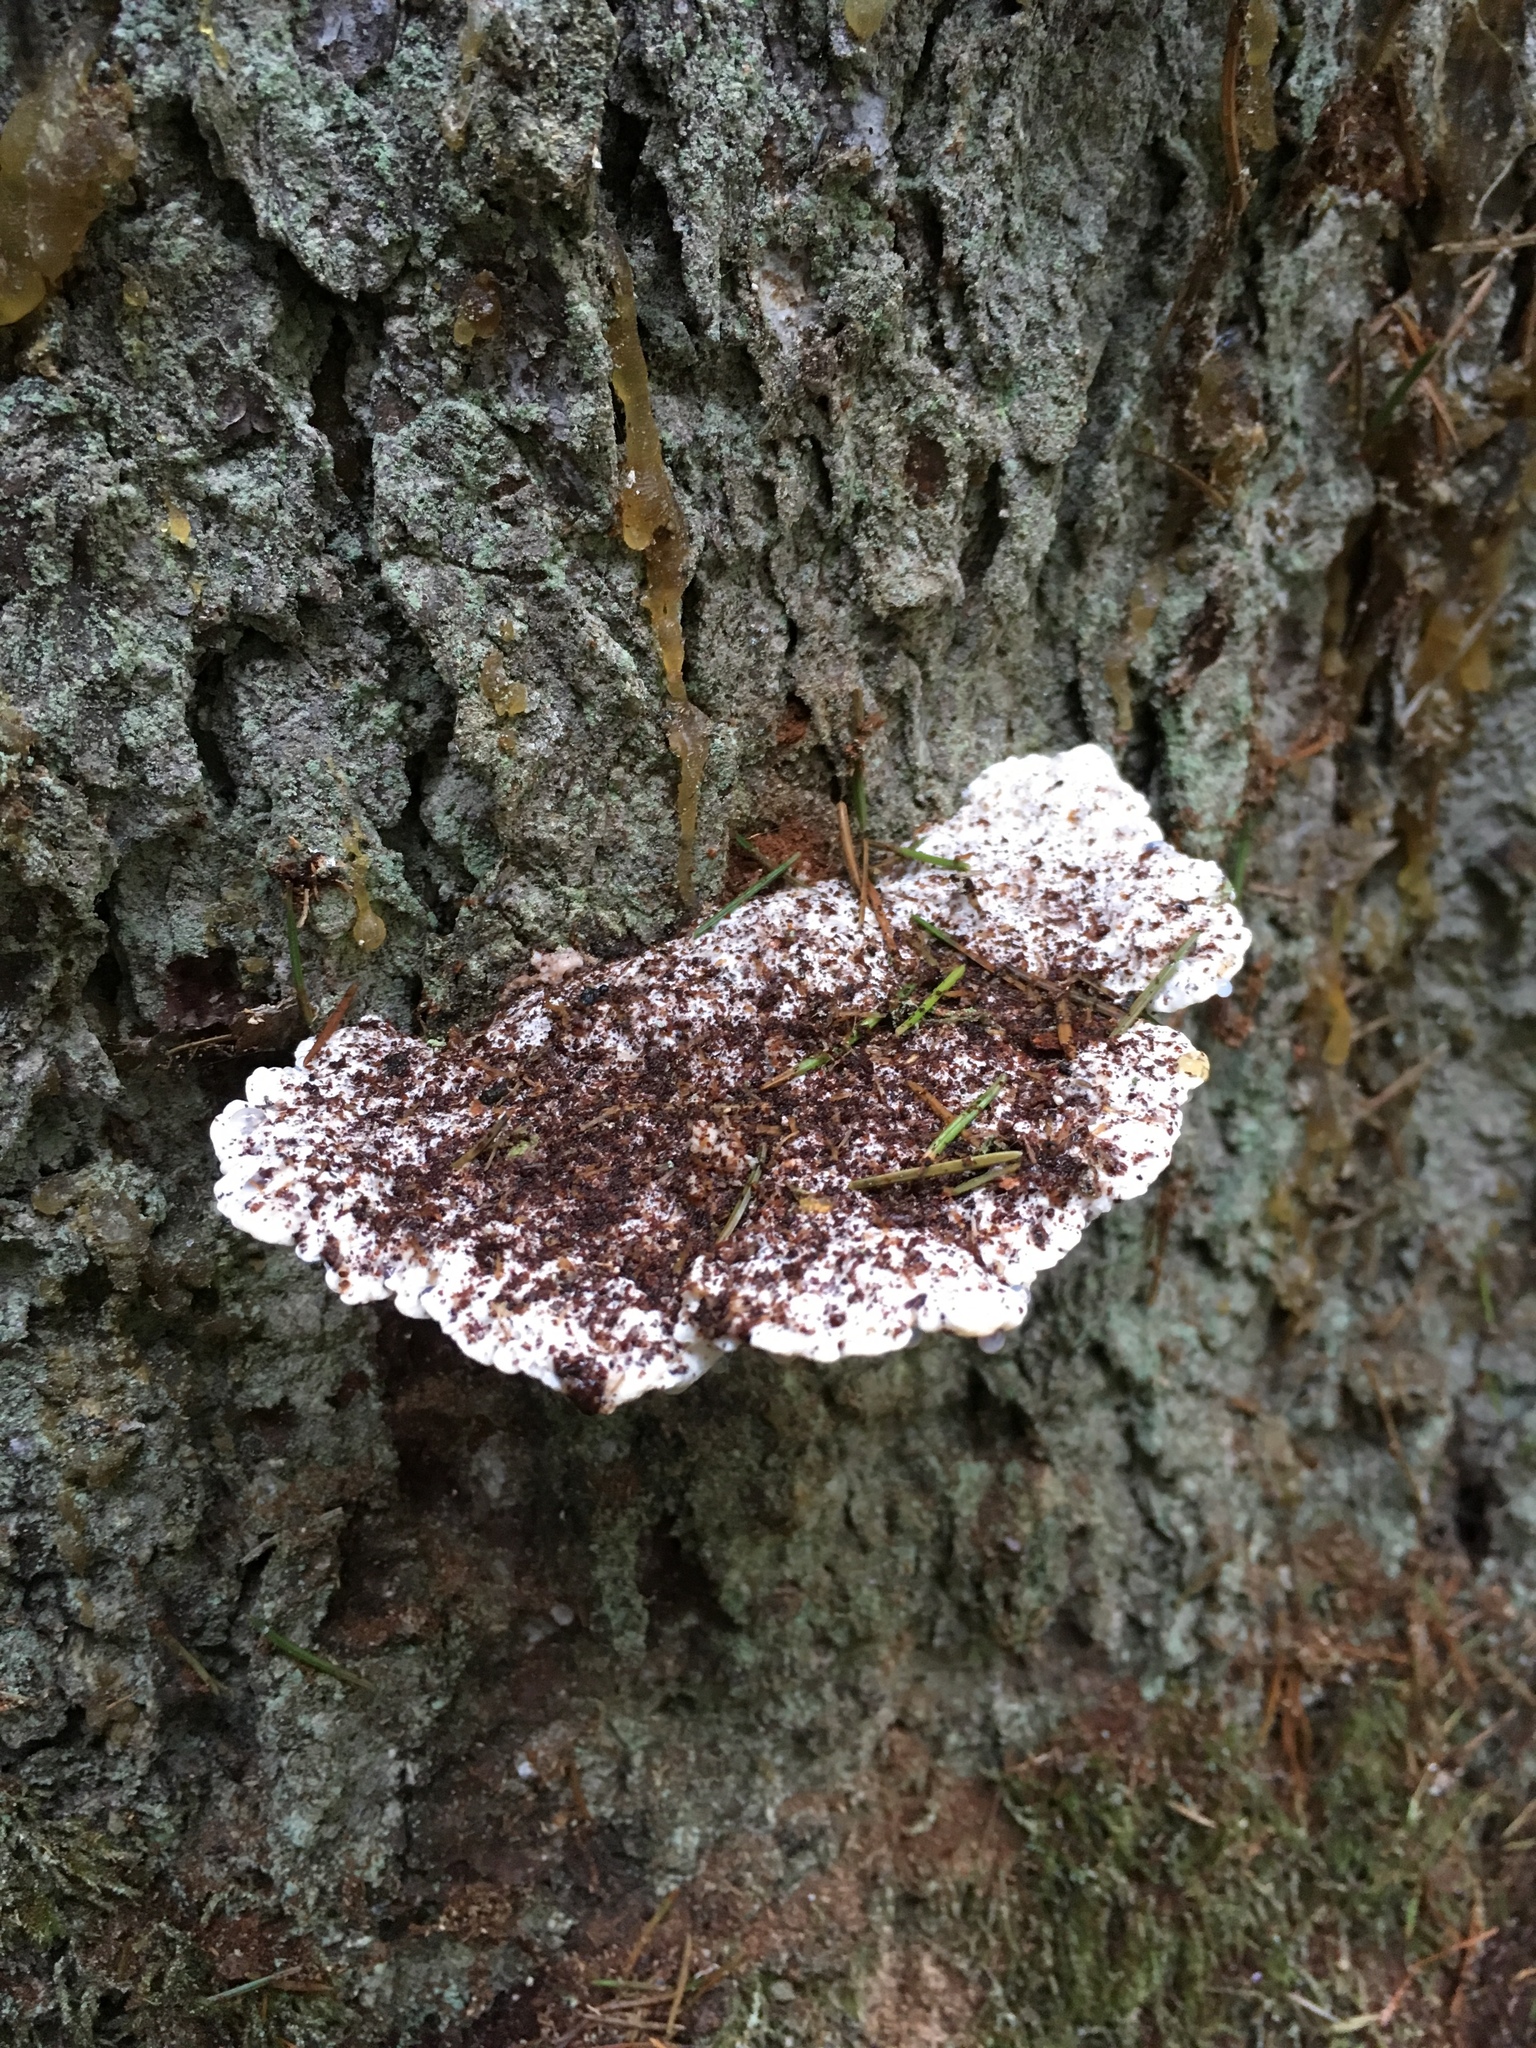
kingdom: Fungi
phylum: Basidiomycota
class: Agaricomycetes
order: Polyporales
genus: Amaropostia
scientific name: Amaropostia stiptica
